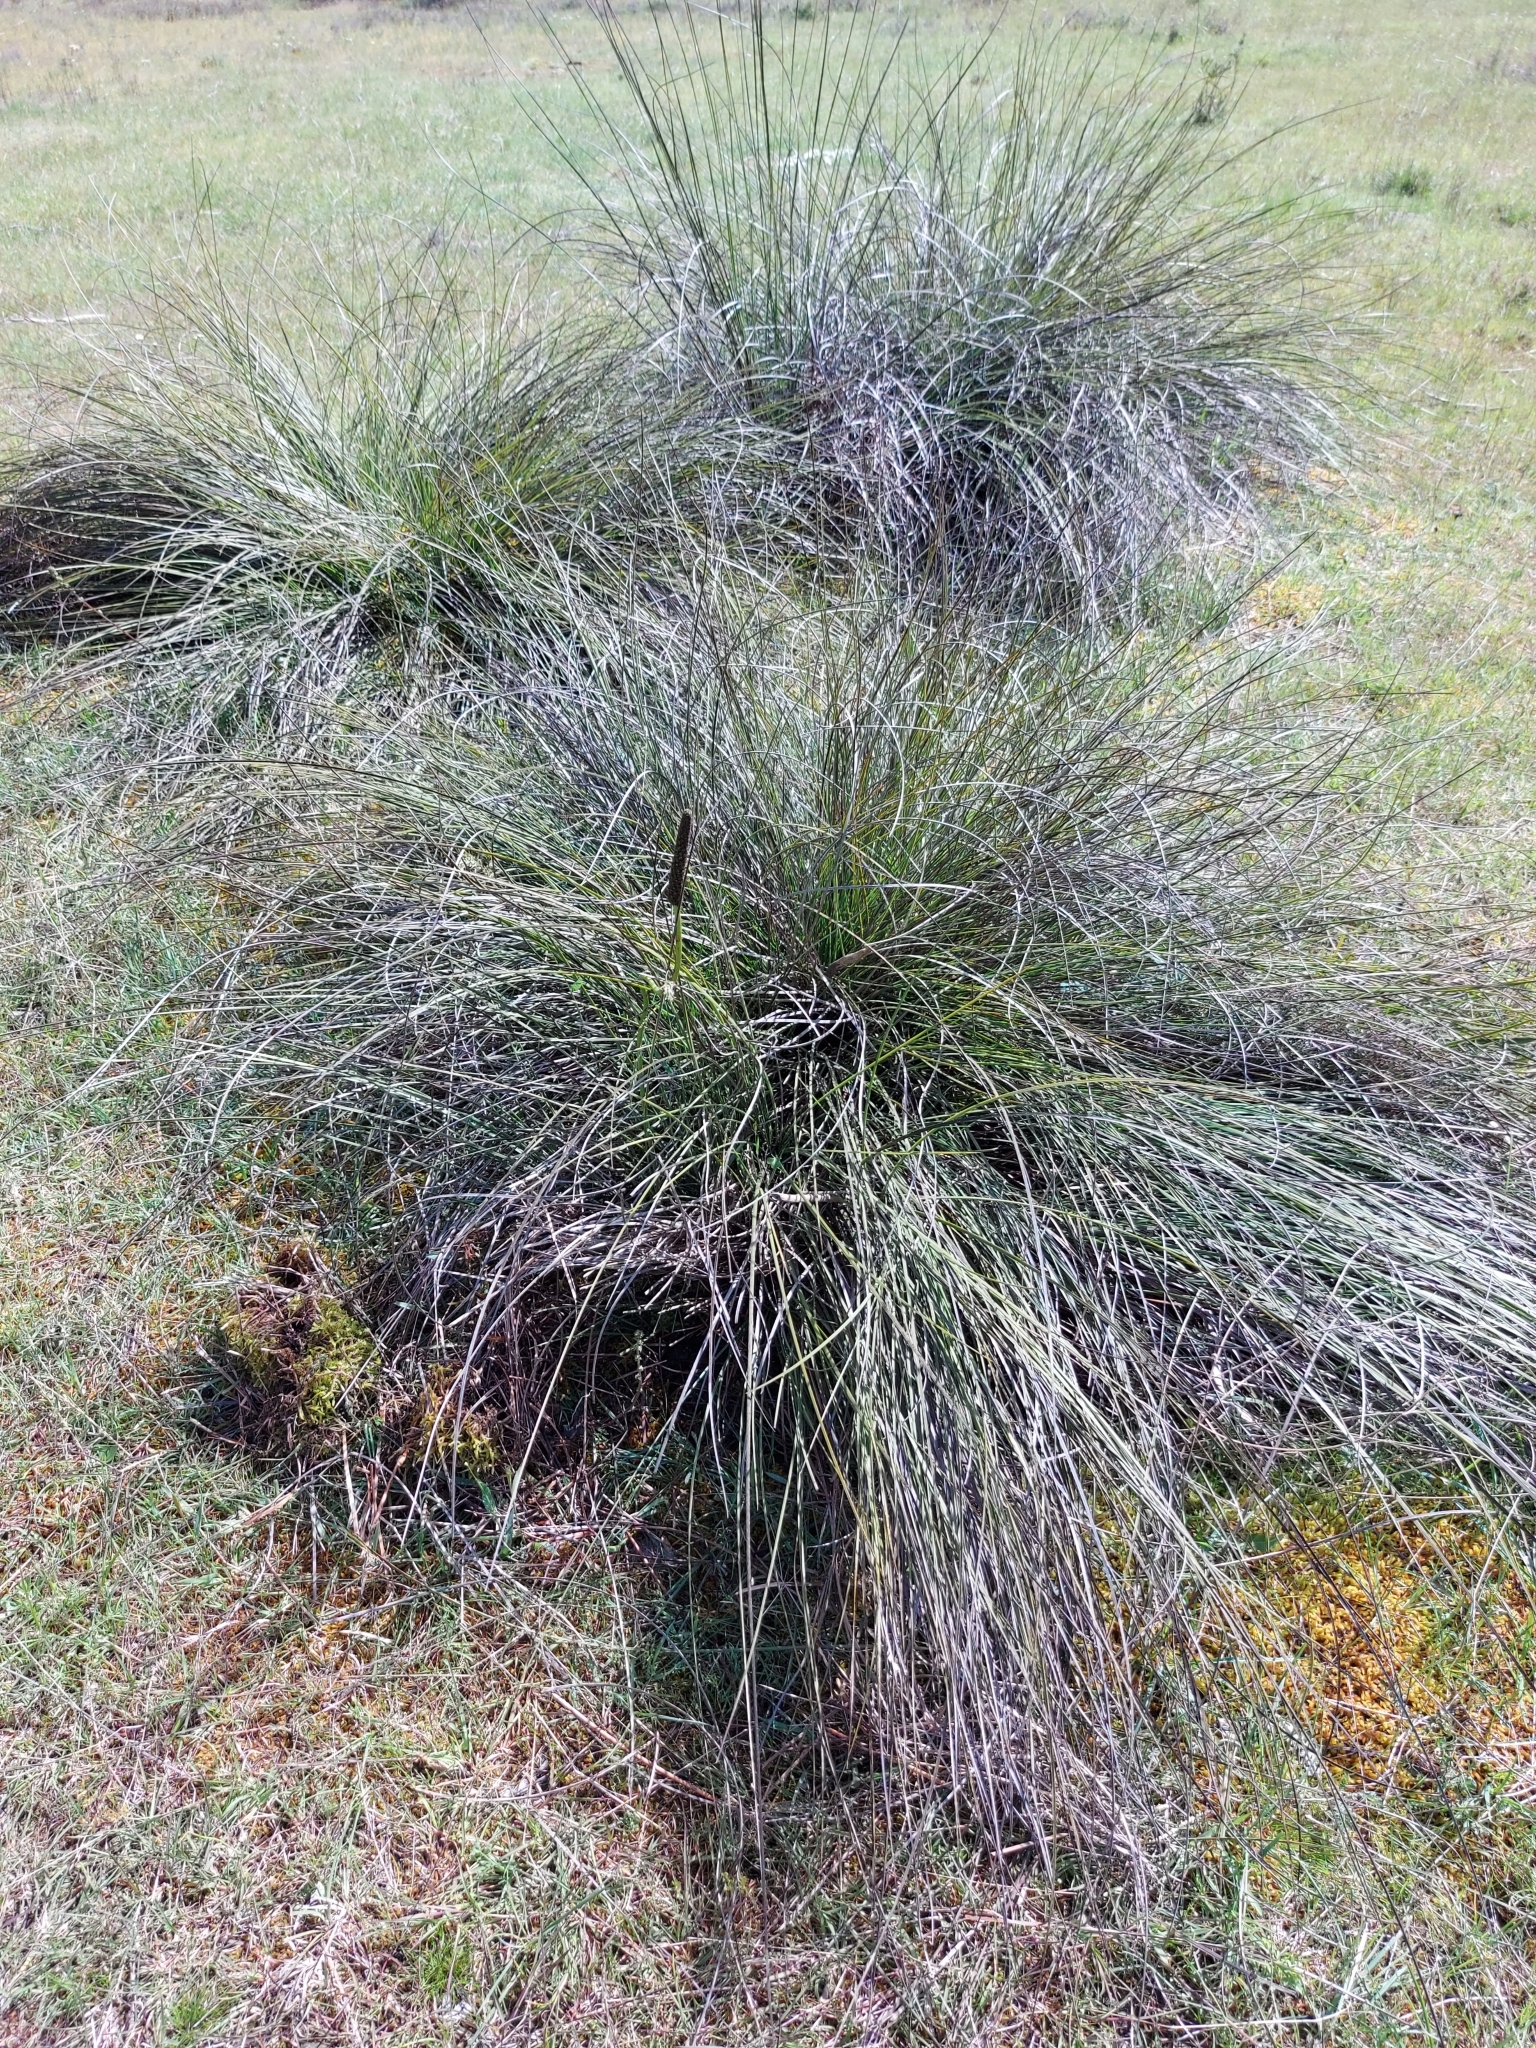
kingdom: Plantae
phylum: Tracheophyta
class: Liliopsida
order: Asparagales
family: Asphodelaceae
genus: Xanthorrhoea
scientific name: Xanthorrhoea minor
